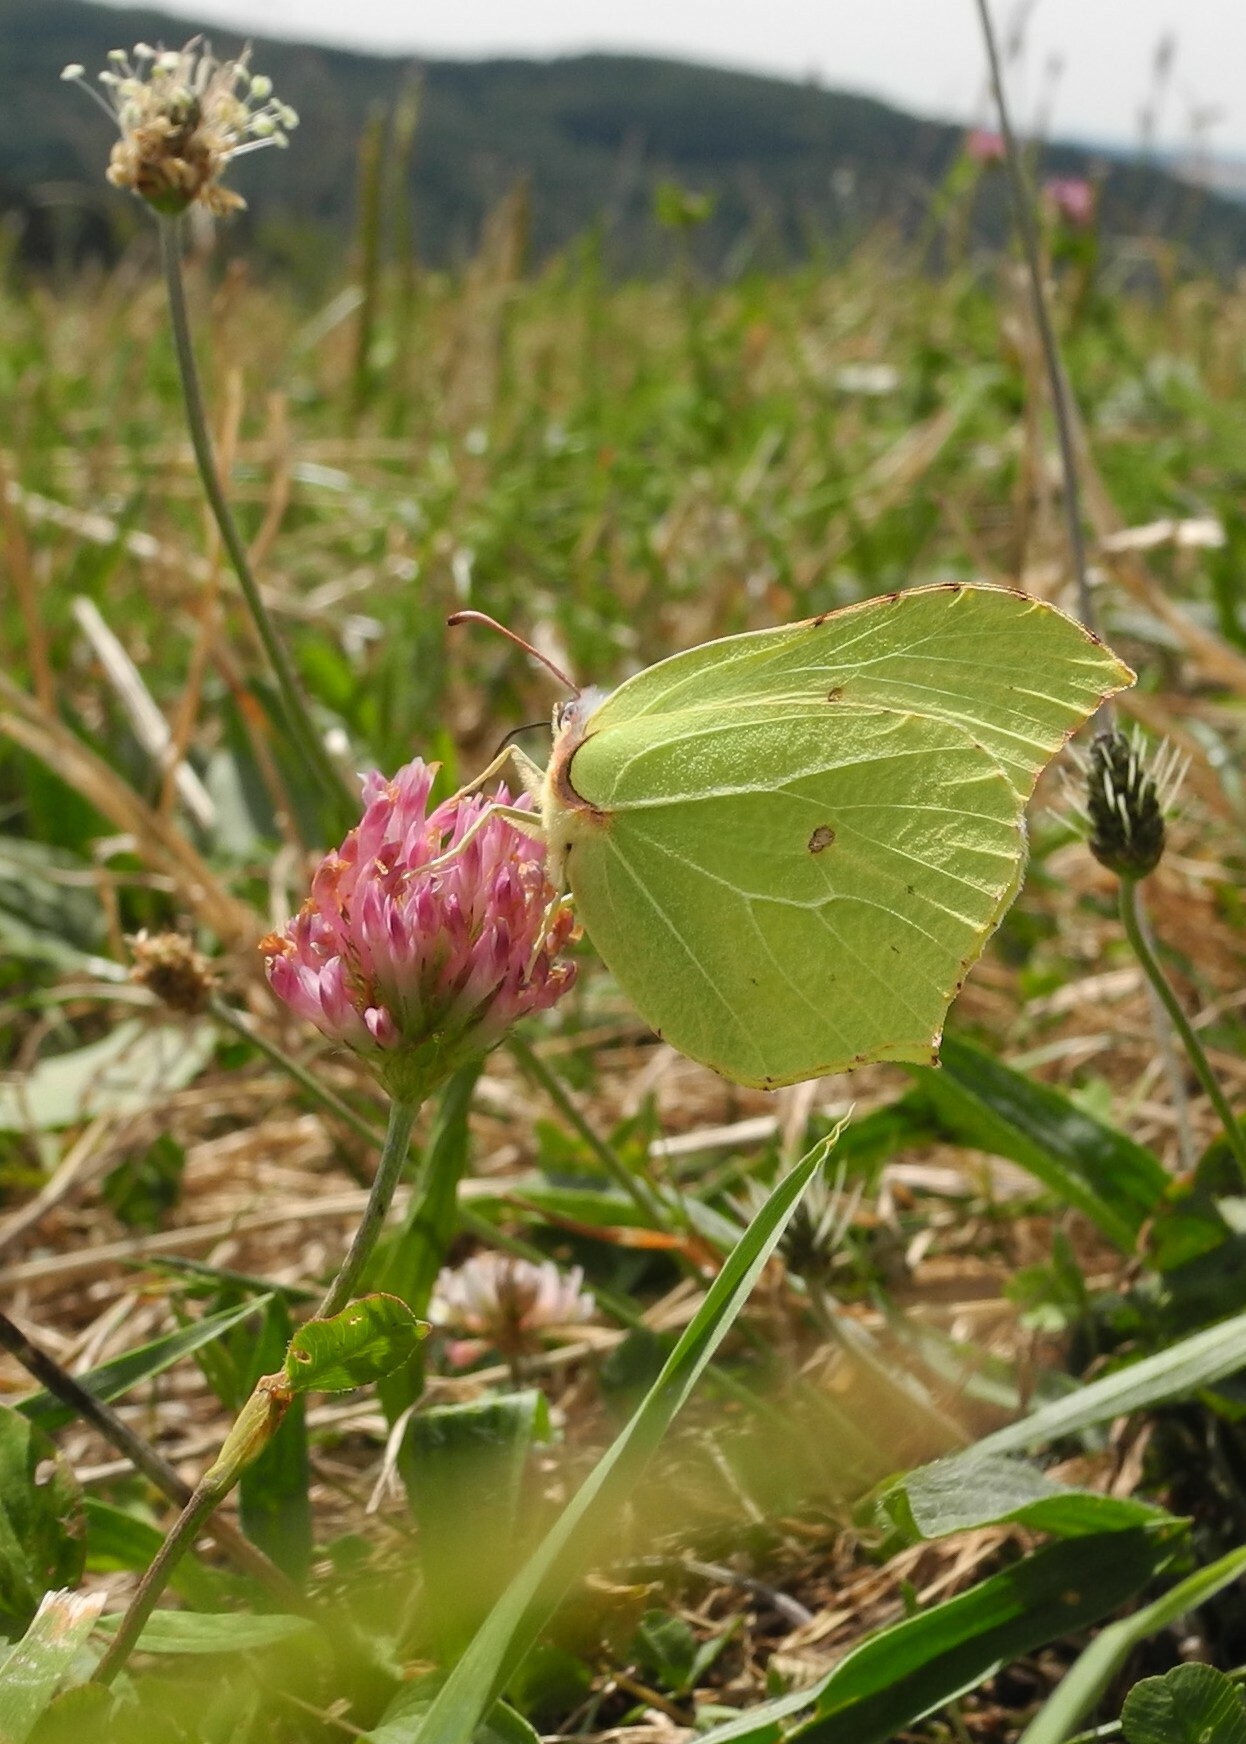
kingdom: Animalia
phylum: Arthropoda
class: Insecta
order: Lepidoptera
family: Pieridae
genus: Gonepteryx
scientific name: Gonepteryx rhamni
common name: Brimstone
